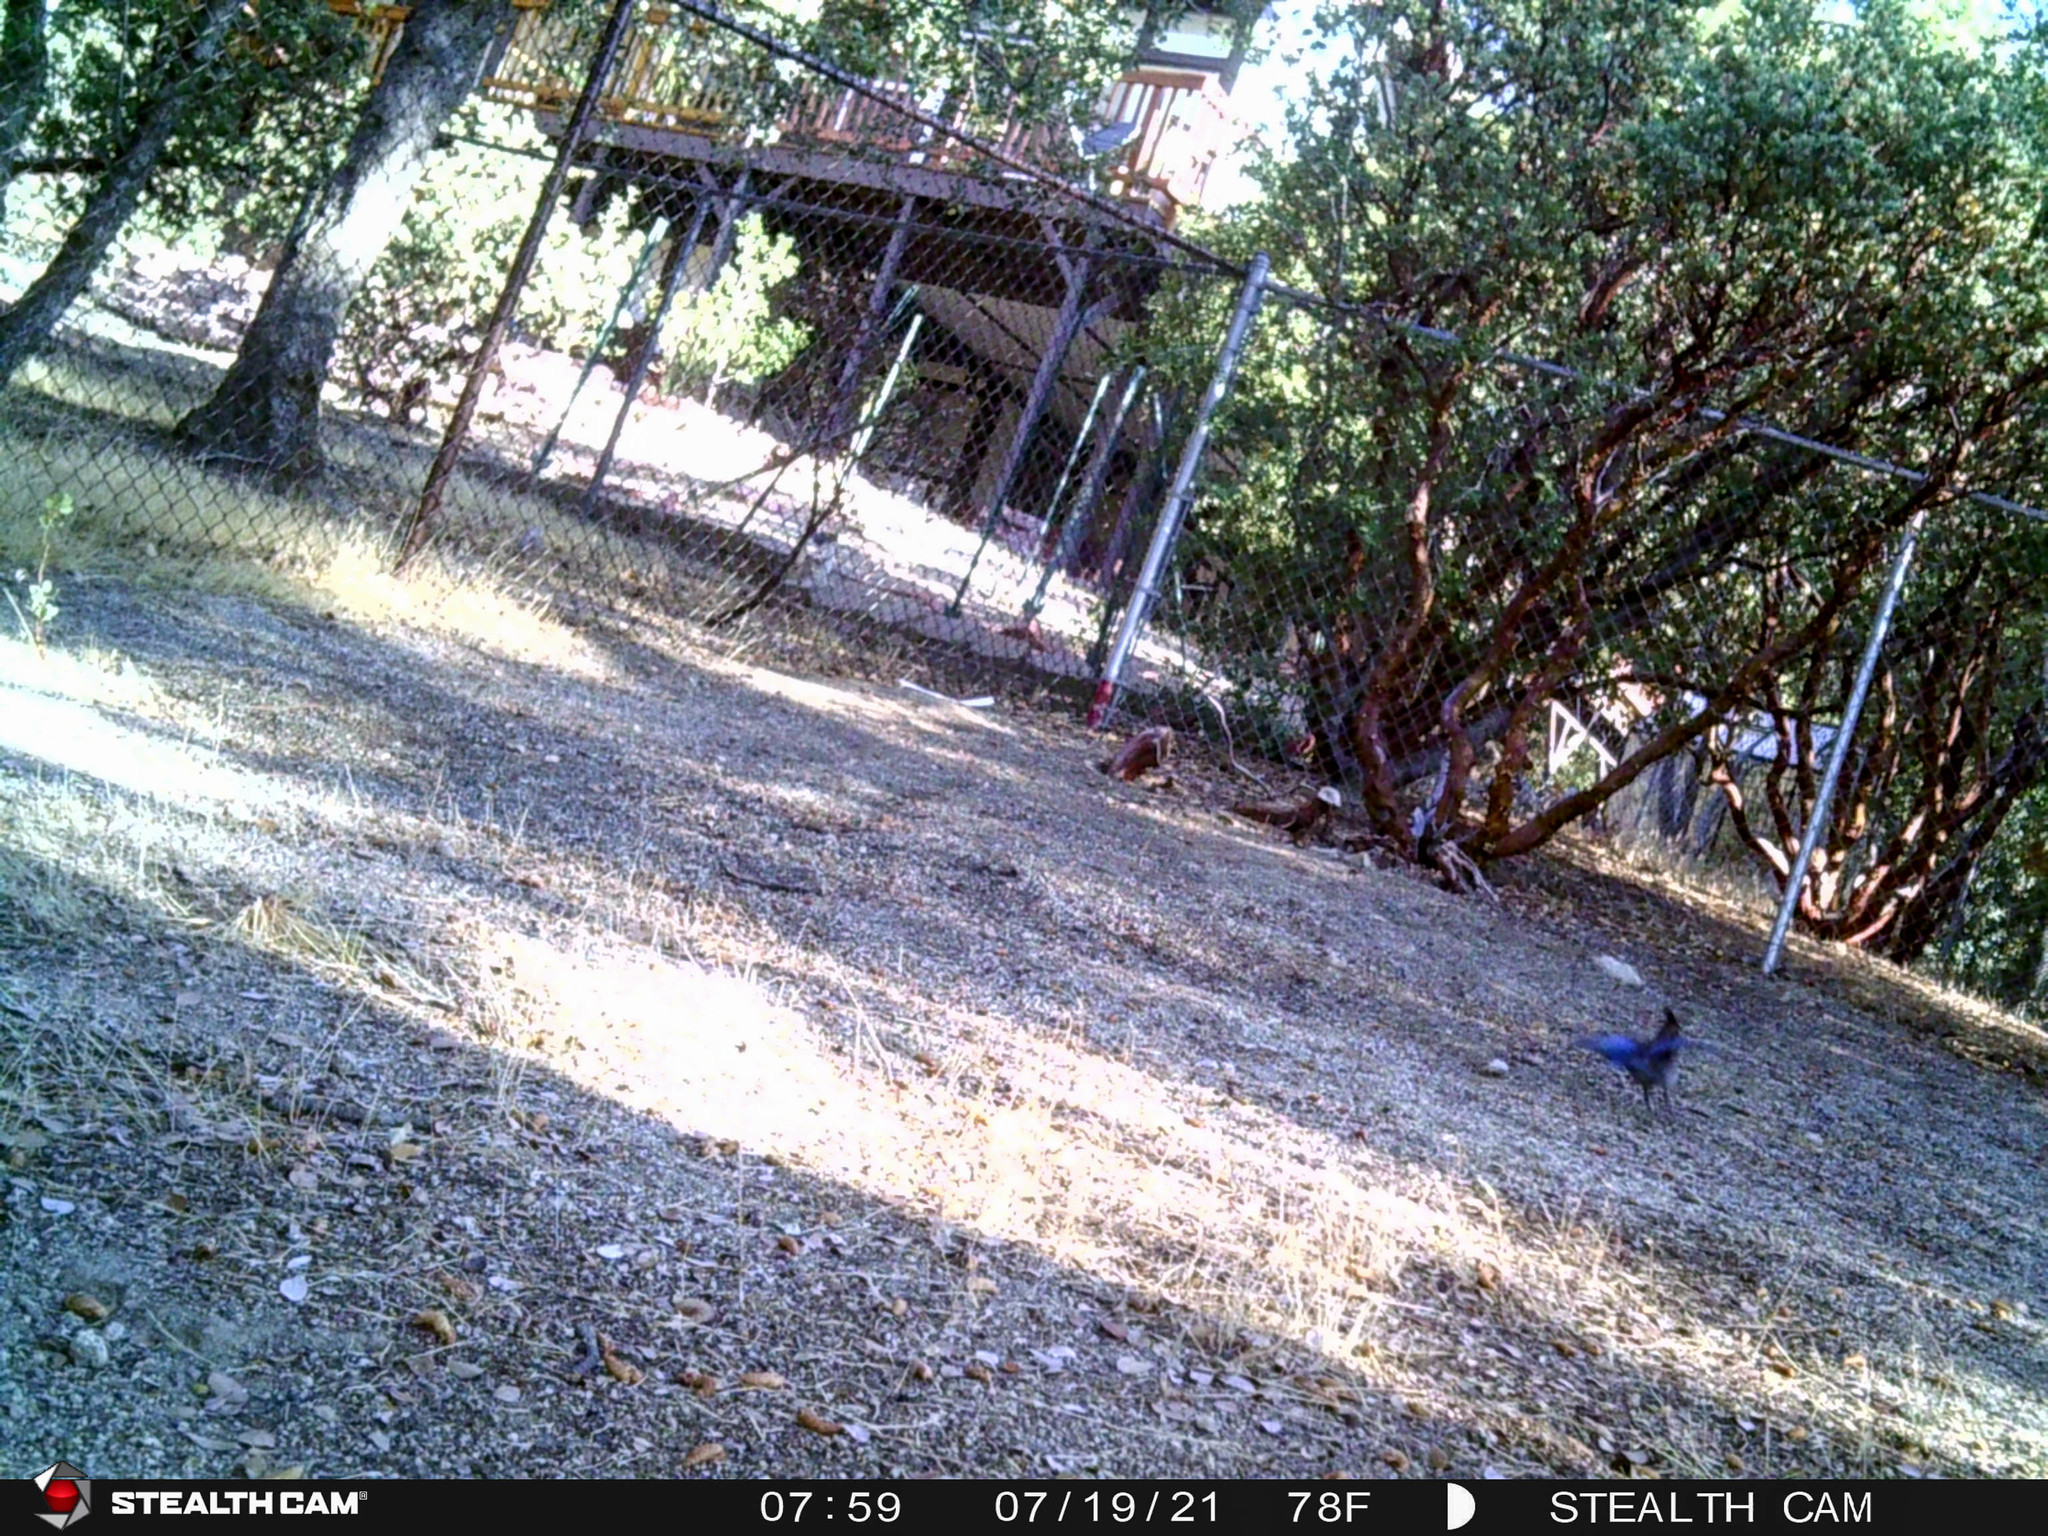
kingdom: Animalia
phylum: Chordata
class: Aves
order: Passeriformes
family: Corvidae
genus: Cyanocitta
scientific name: Cyanocitta stelleri
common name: Steller's jay
